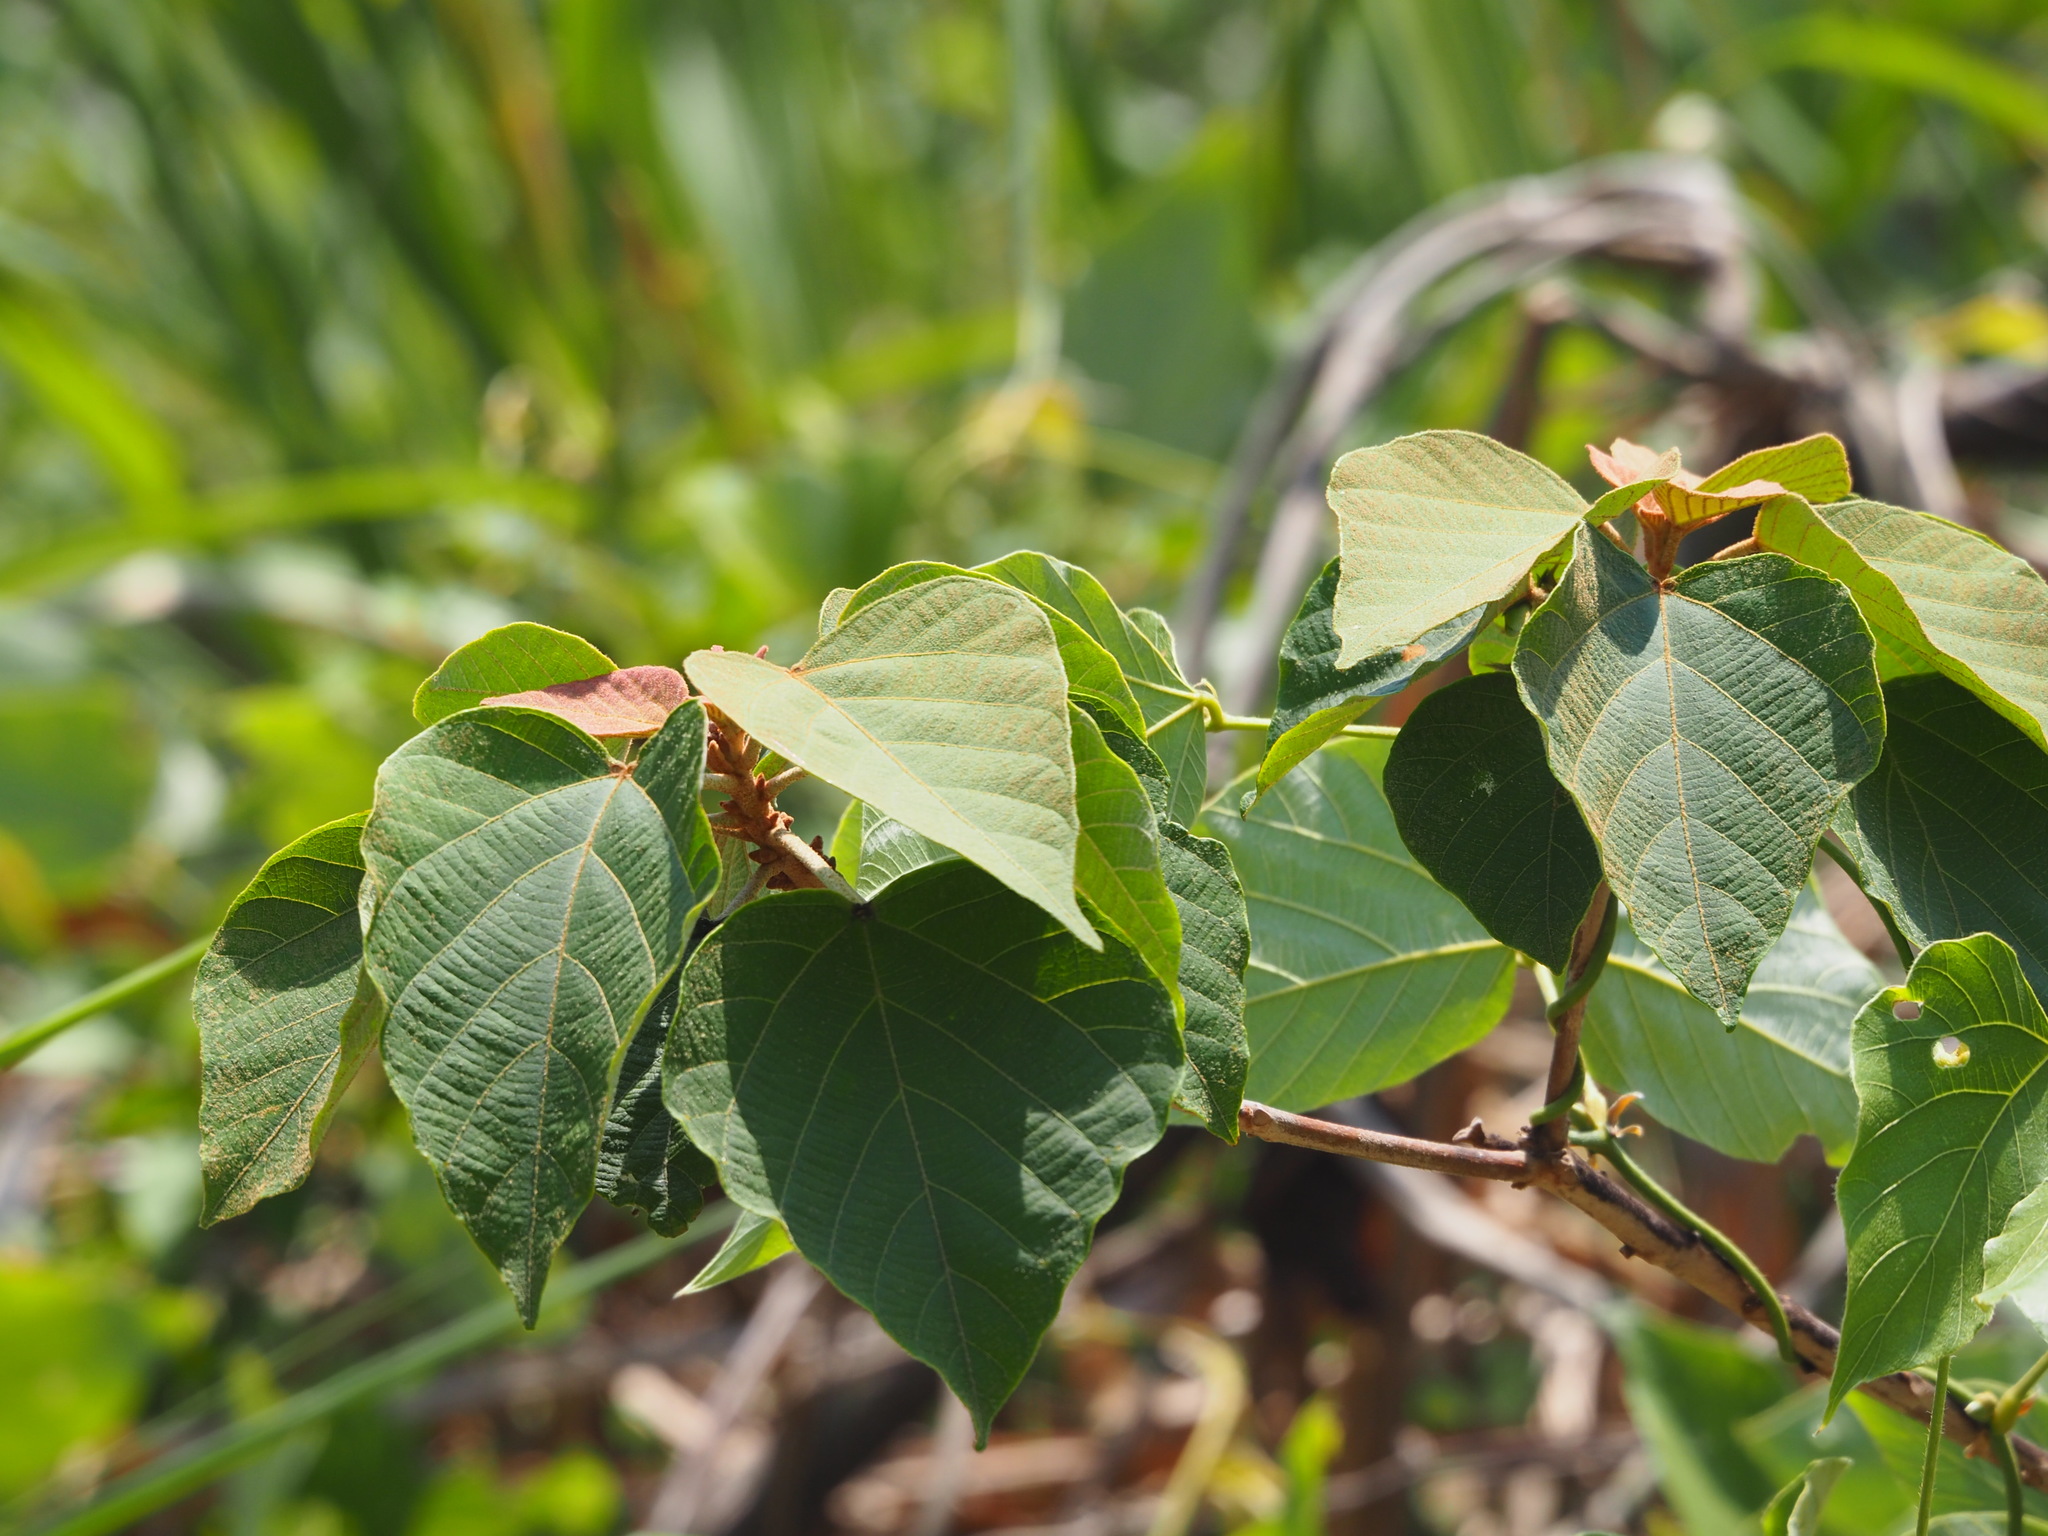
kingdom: Plantae
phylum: Tracheophyta
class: Magnoliopsida
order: Malpighiales
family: Euphorbiaceae
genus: Mallotus
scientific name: Mallotus japonicus
